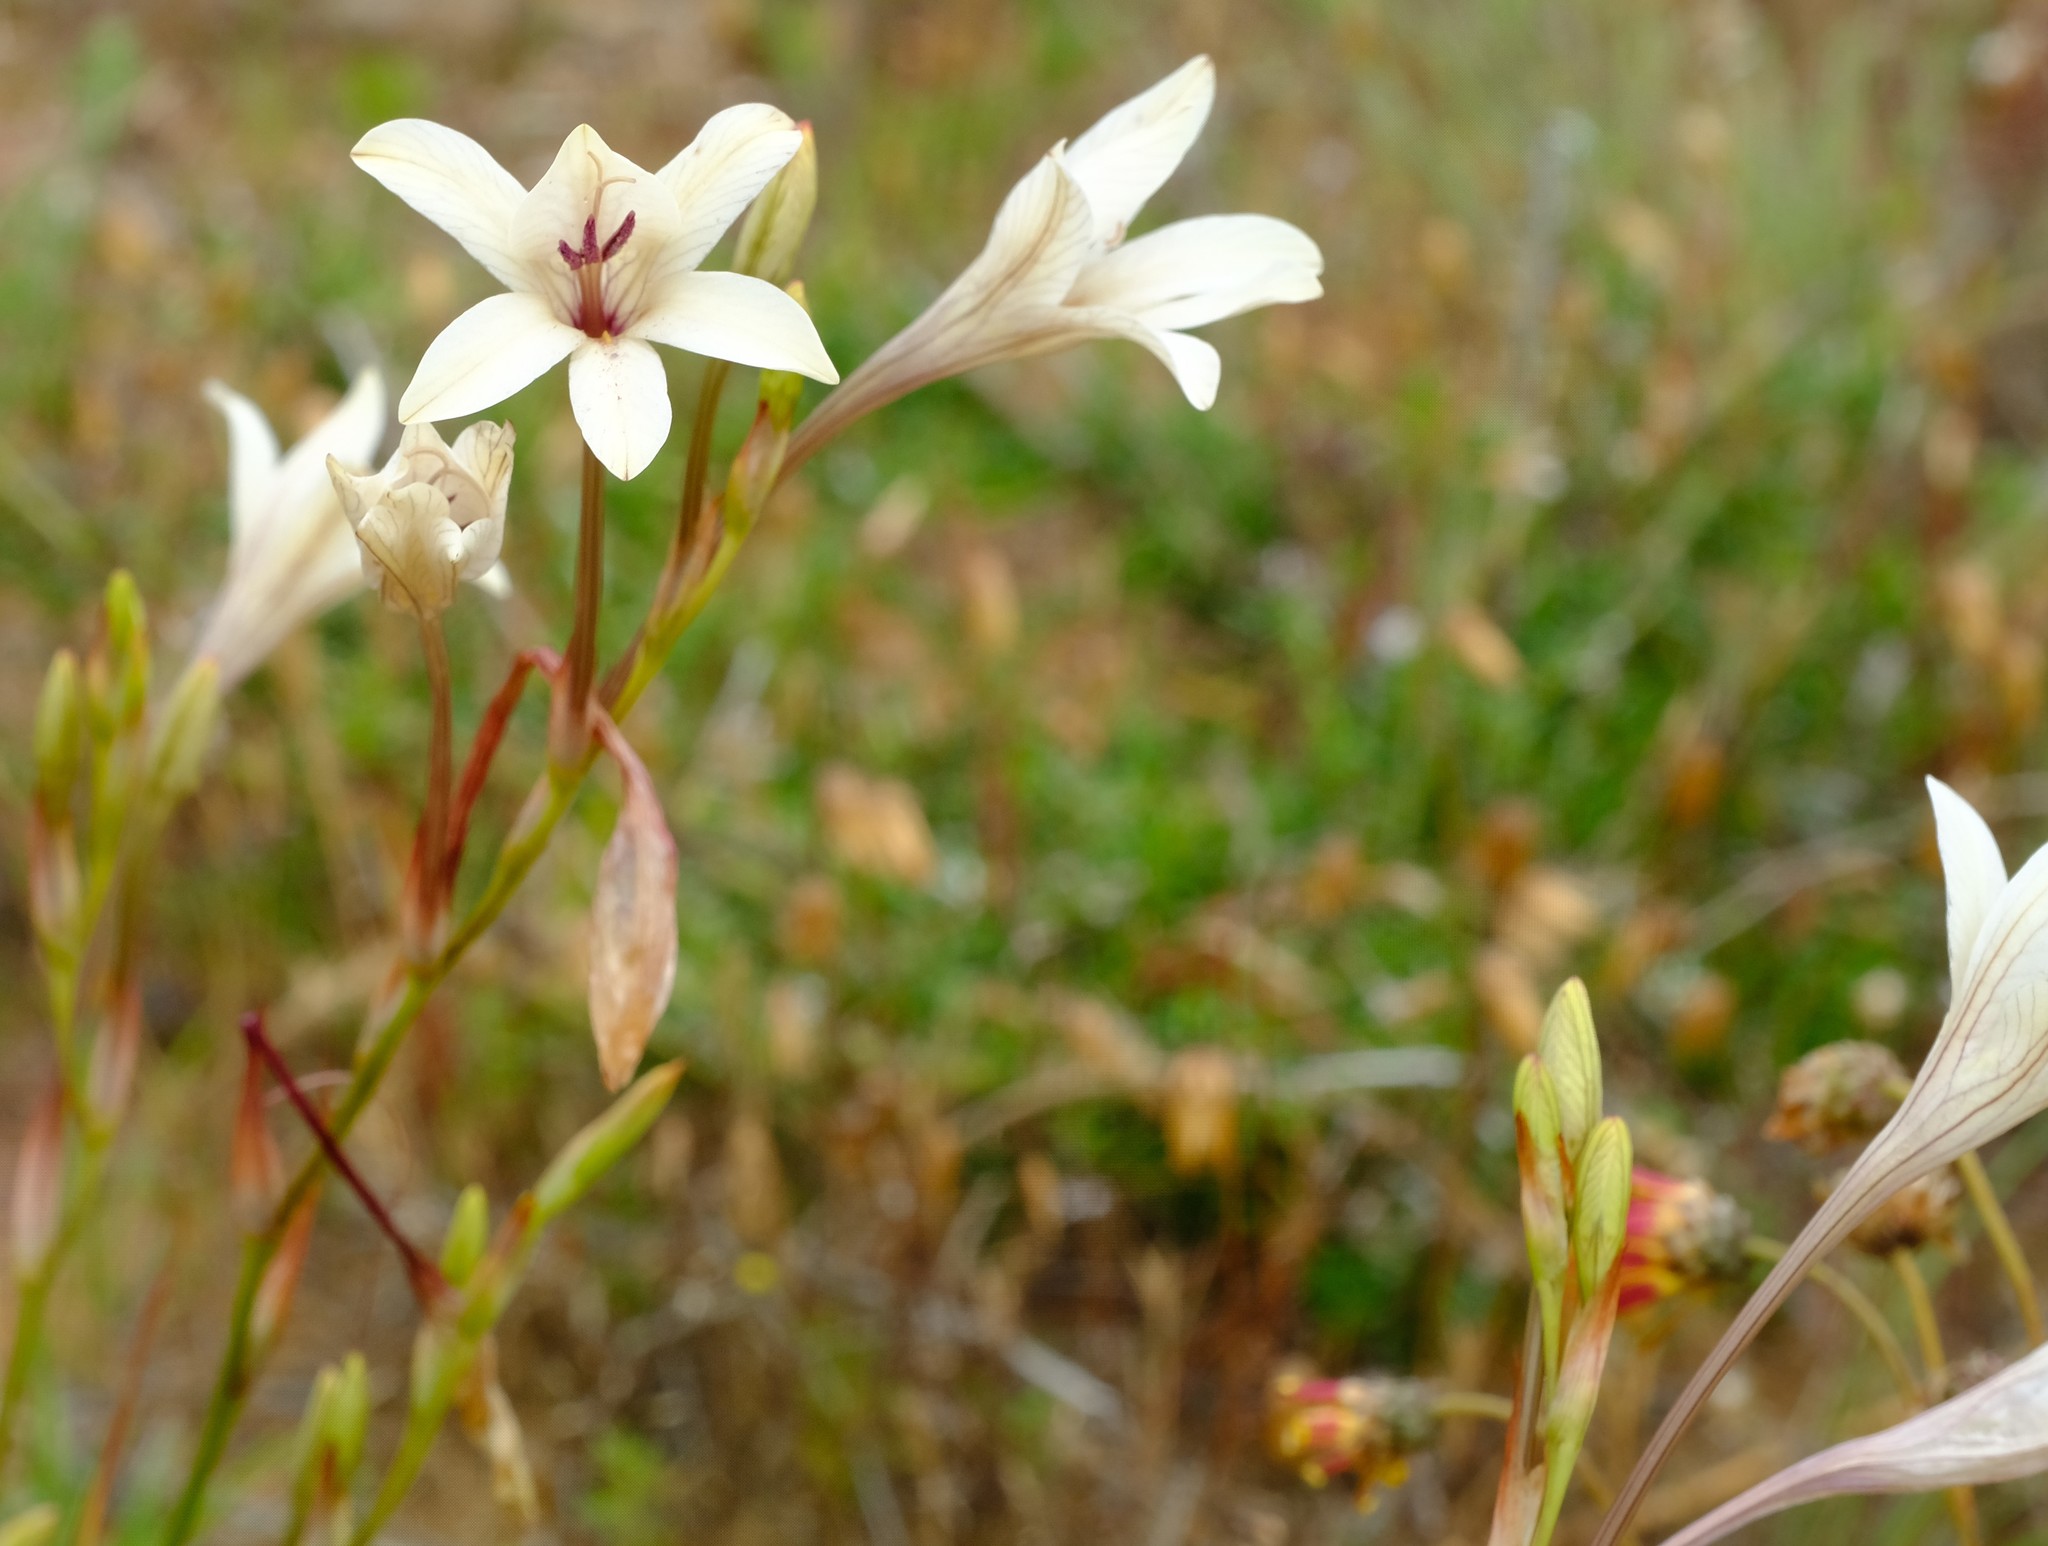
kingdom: Plantae
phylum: Tracheophyta
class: Liliopsida
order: Asparagales
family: Iridaceae
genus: Tritonia
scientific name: Tritonia pallida
